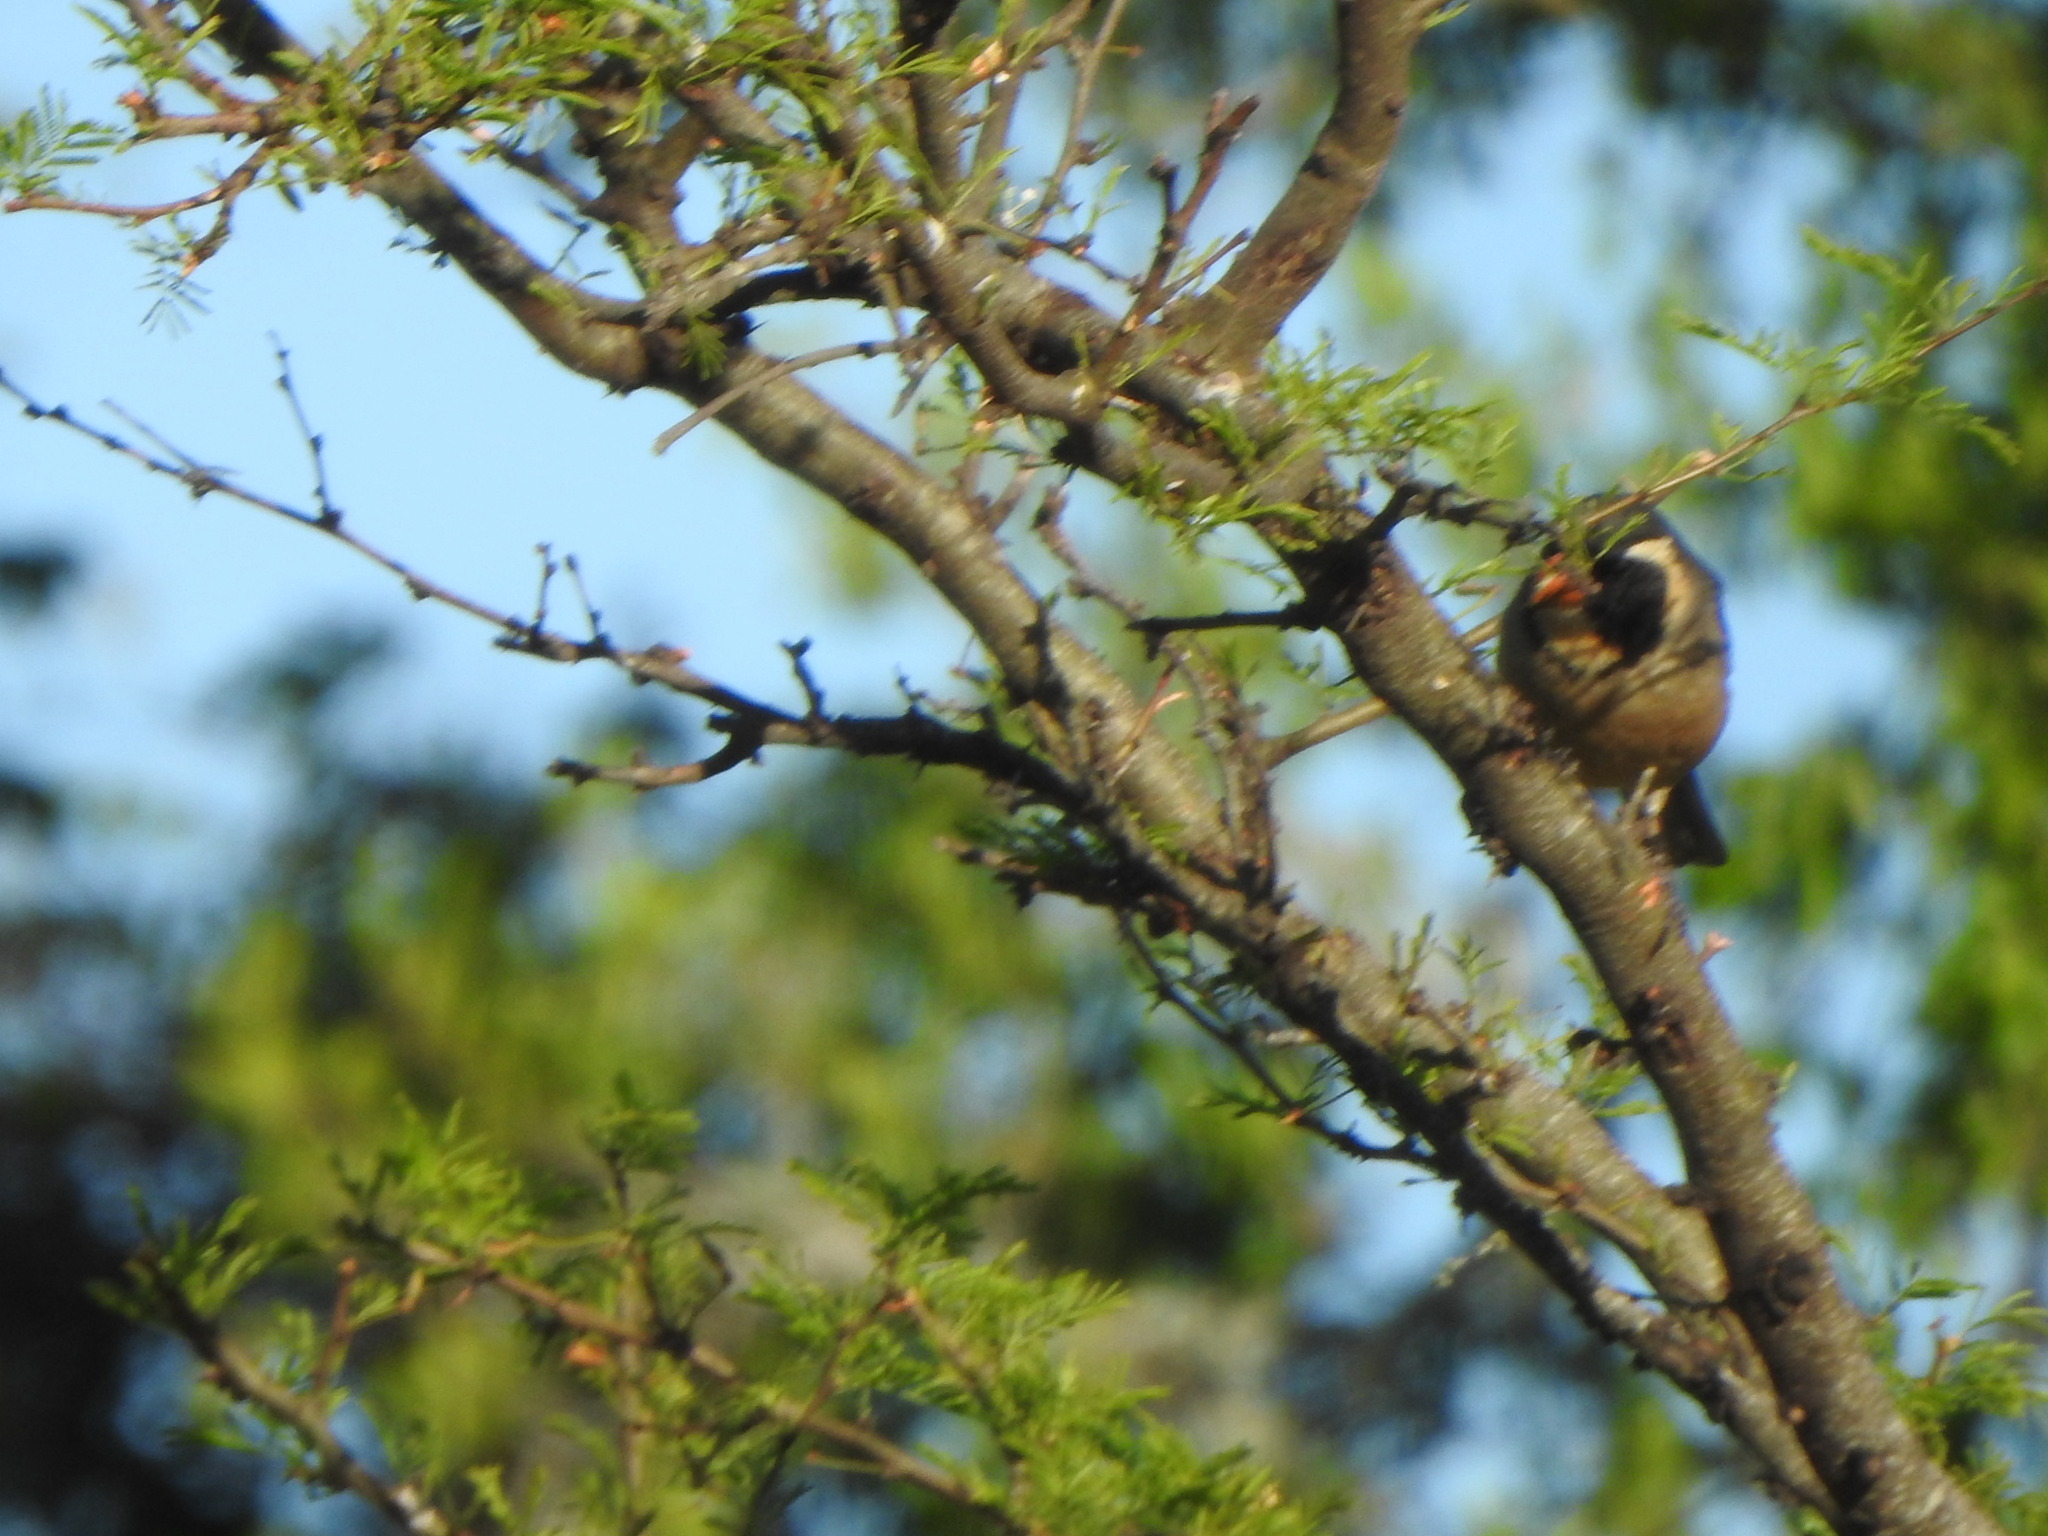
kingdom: Animalia
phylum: Chordata
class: Aves
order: Passeriformes
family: Thraupidae
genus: Saltator
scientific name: Saltator aurantiirostris
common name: Golden-billed saltator
